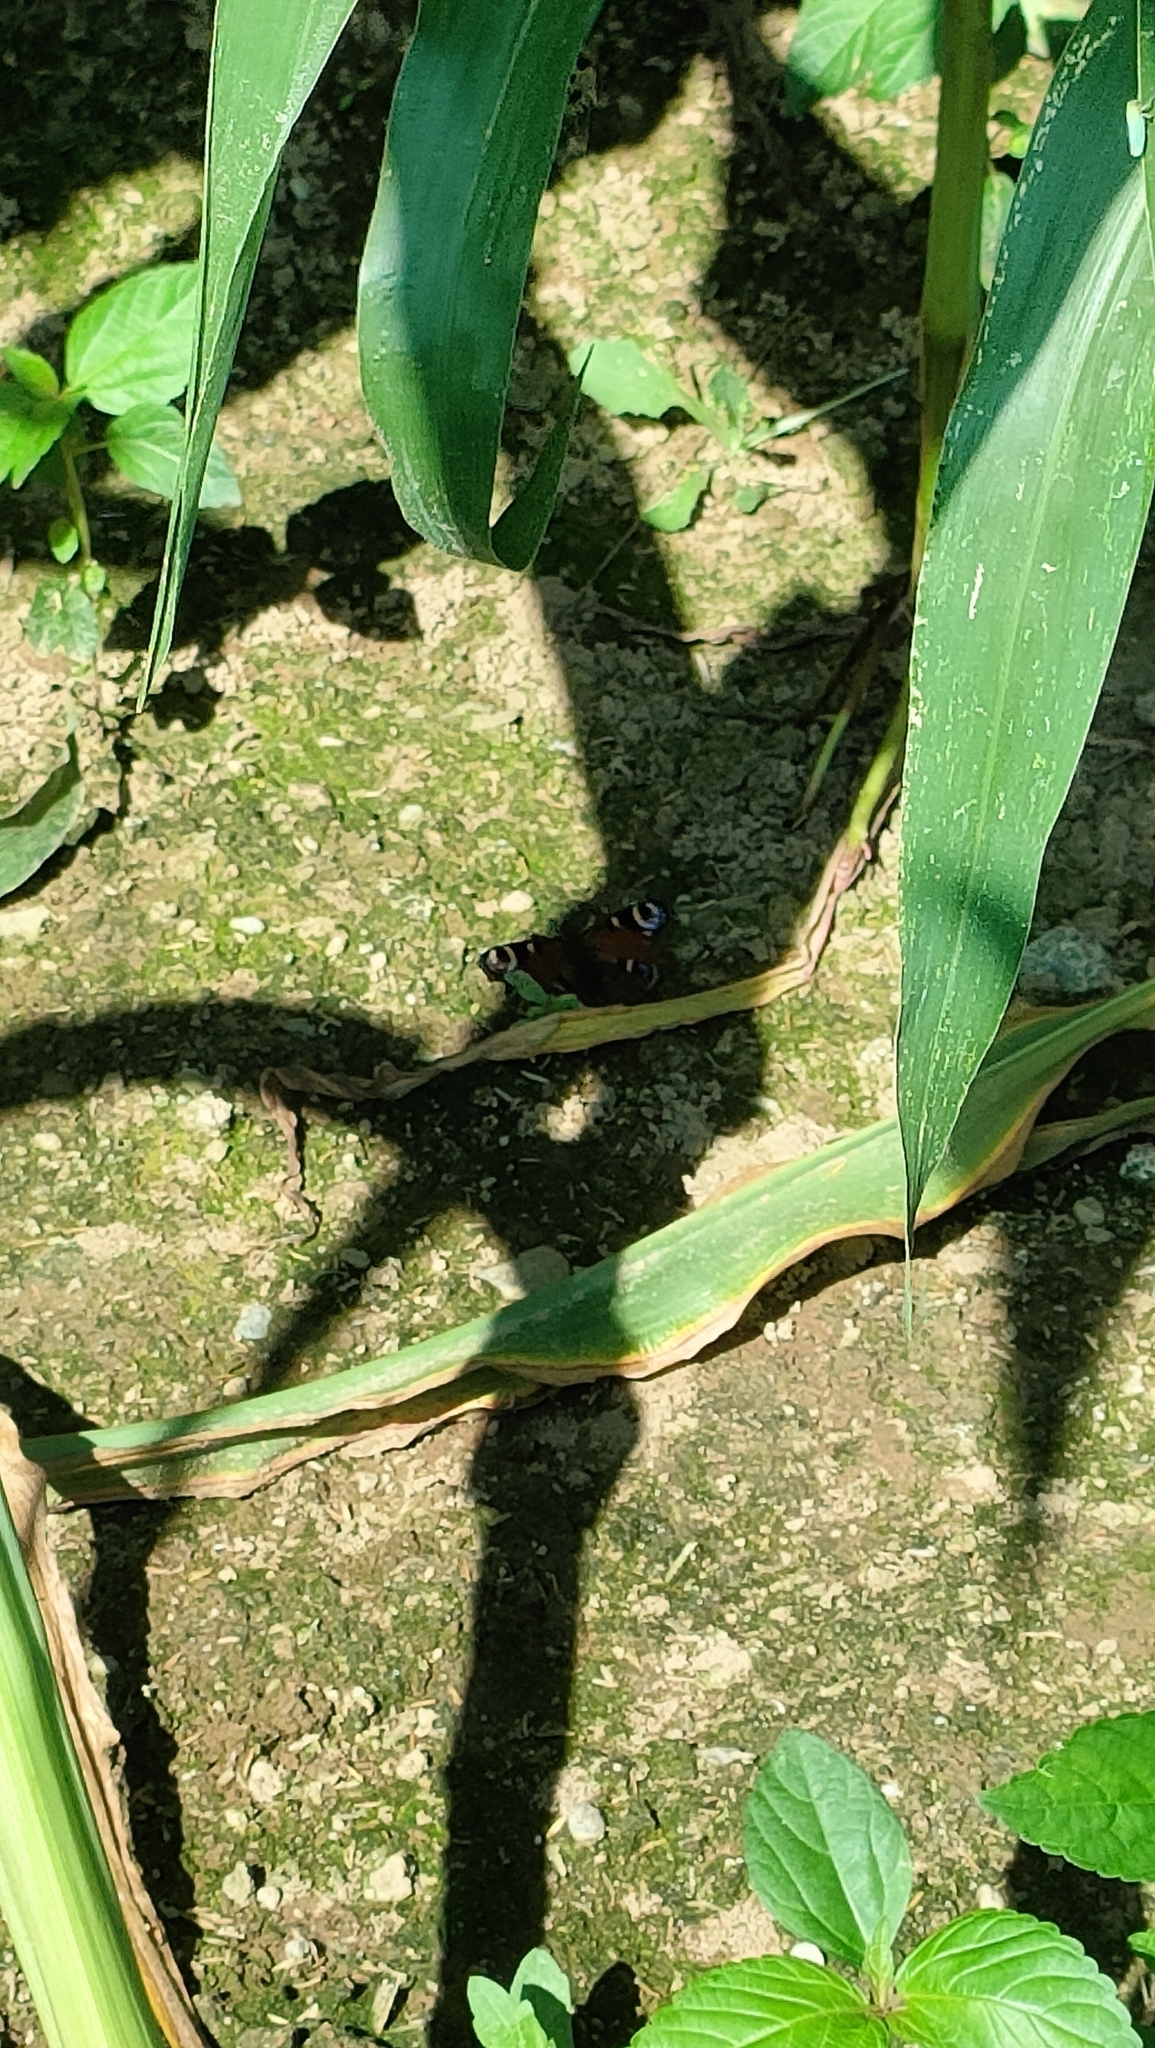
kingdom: Animalia
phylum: Arthropoda
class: Insecta
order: Lepidoptera
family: Nymphalidae
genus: Aglais
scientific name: Aglais io
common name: Peacock
